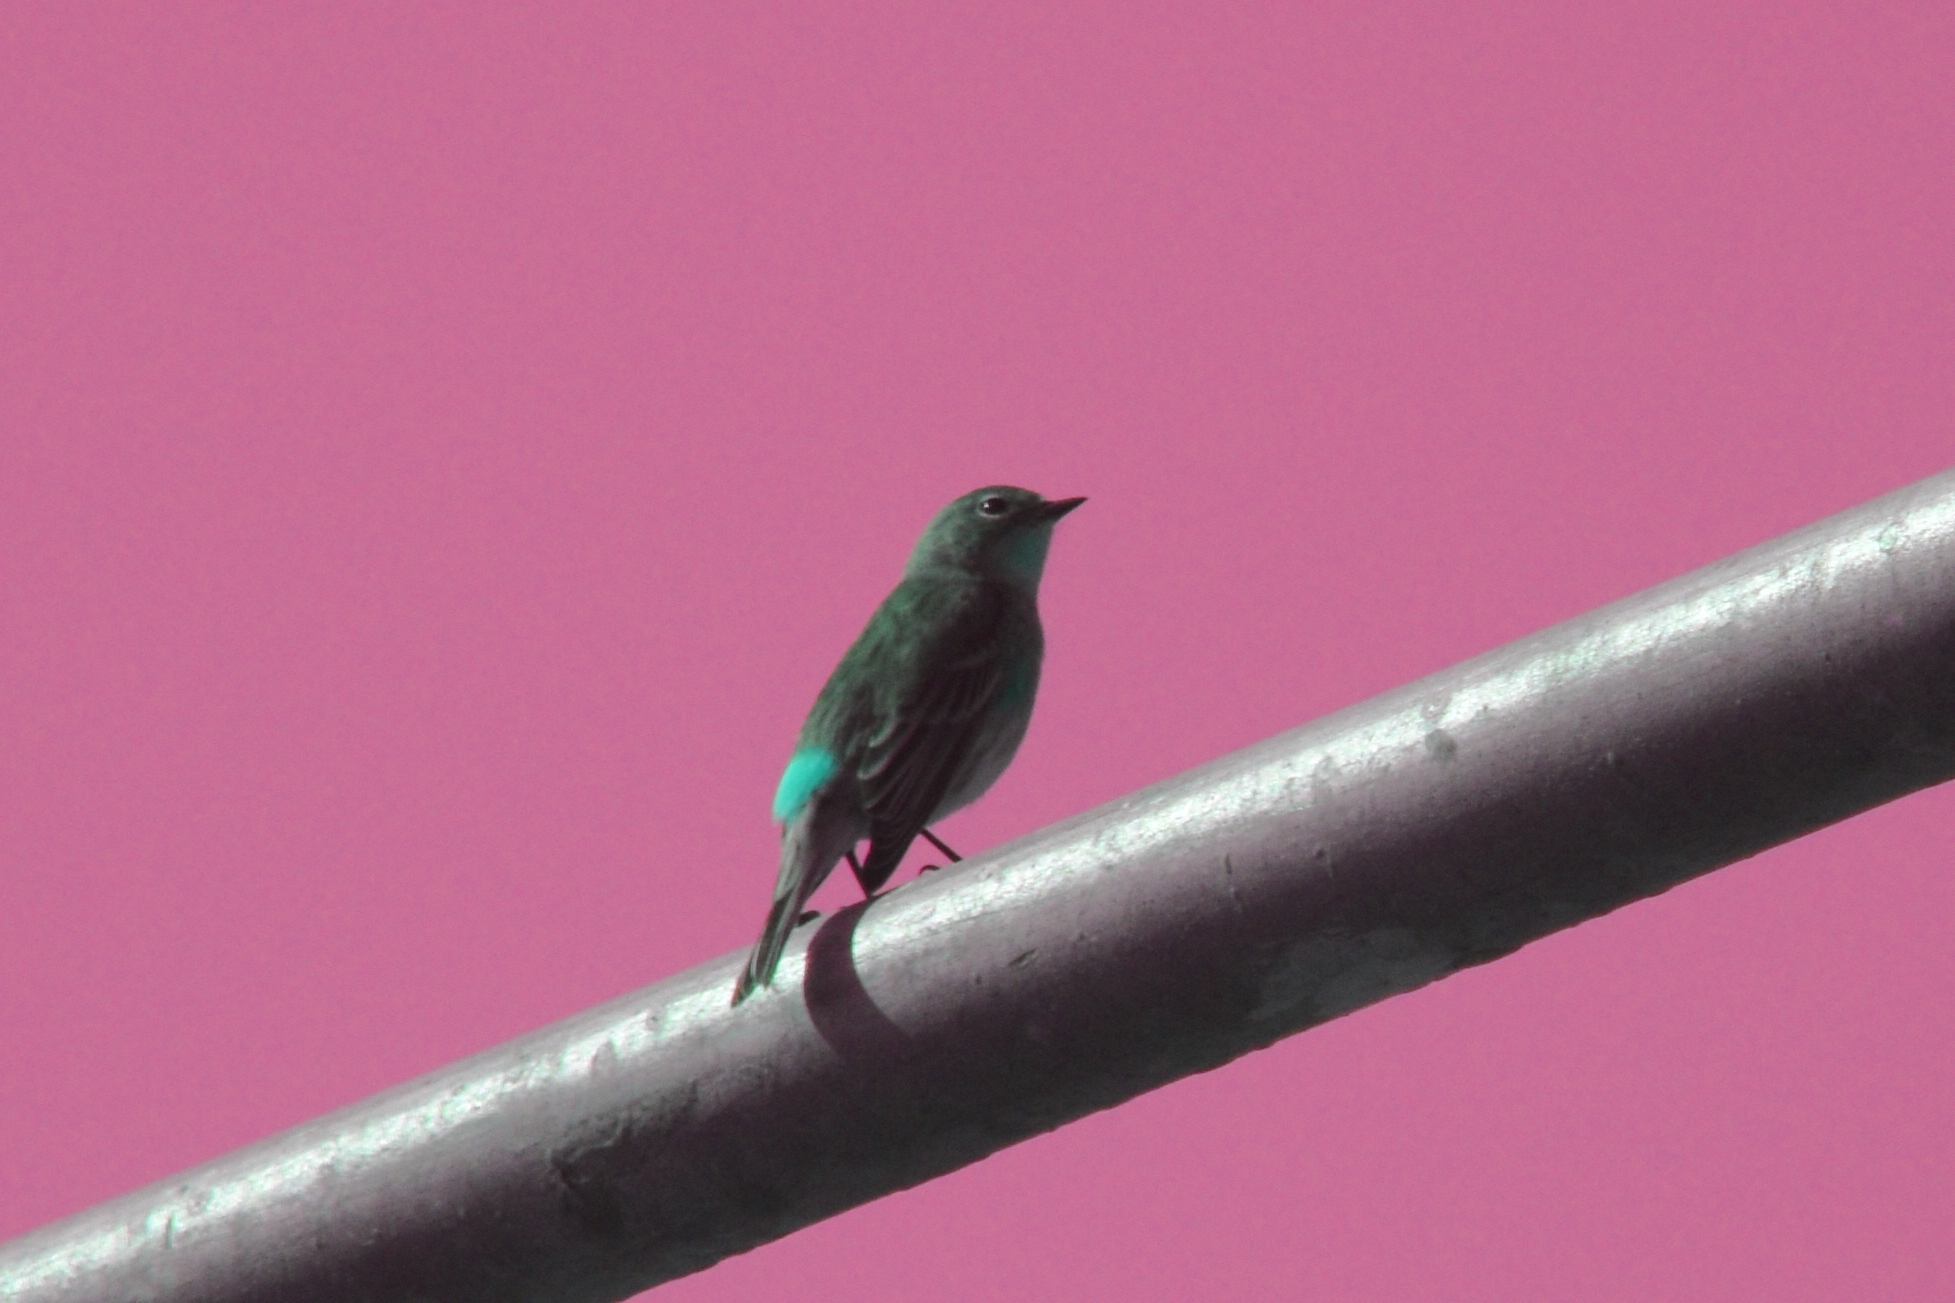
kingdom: Animalia
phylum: Chordata
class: Aves
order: Passeriformes
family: Parulidae
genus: Setophaga
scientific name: Setophaga coronata
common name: Myrtle warbler
